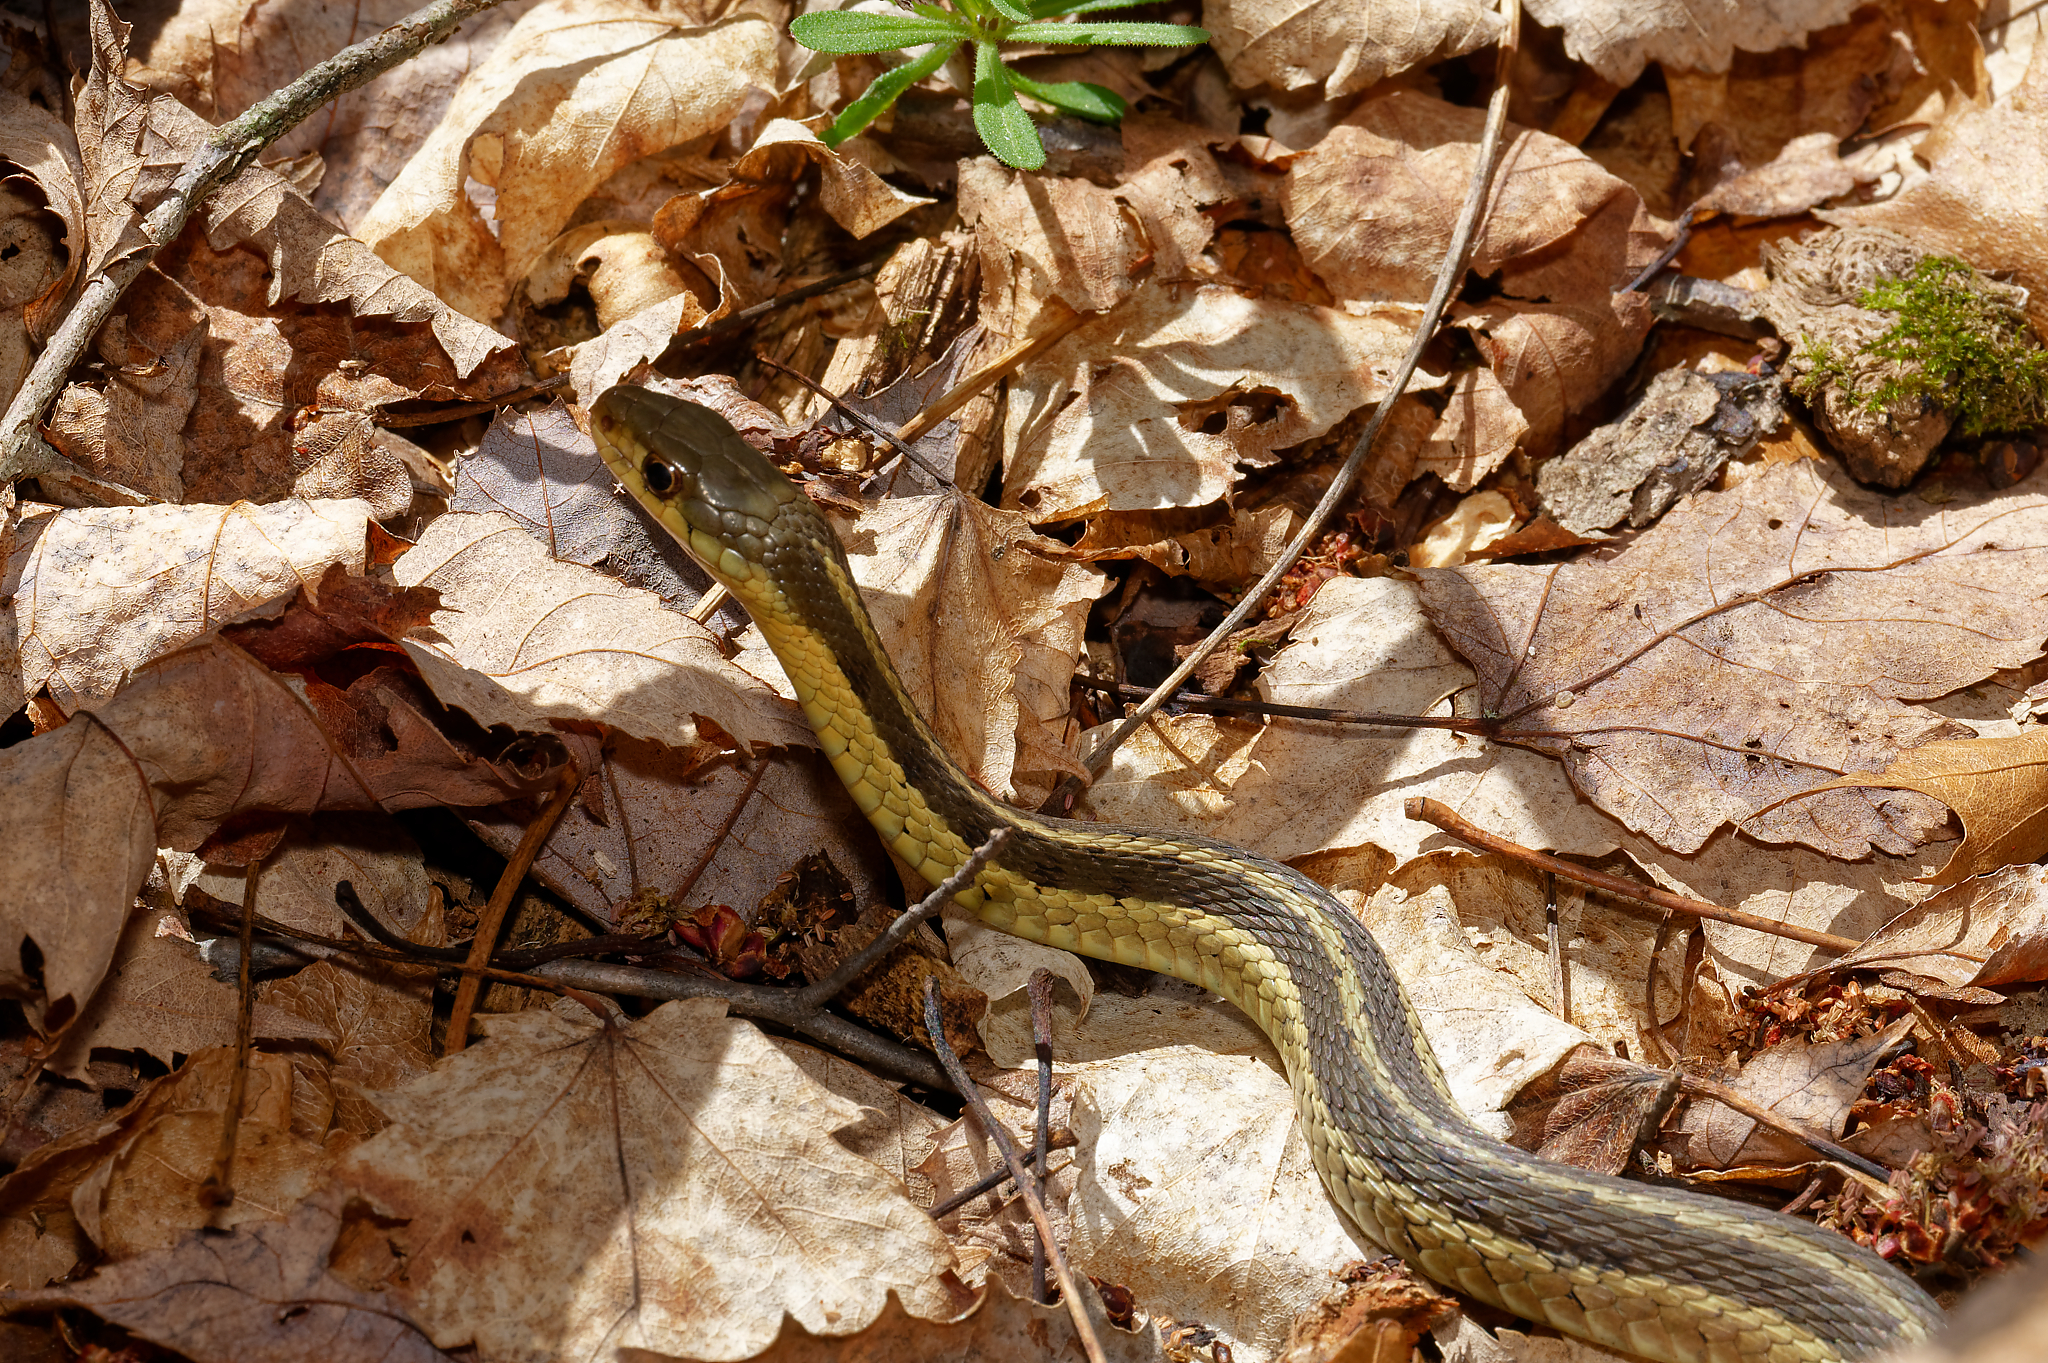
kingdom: Animalia
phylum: Chordata
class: Squamata
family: Colubridae
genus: Thamnophis
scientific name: Thamnophis sirtalis
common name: Common garter snake
